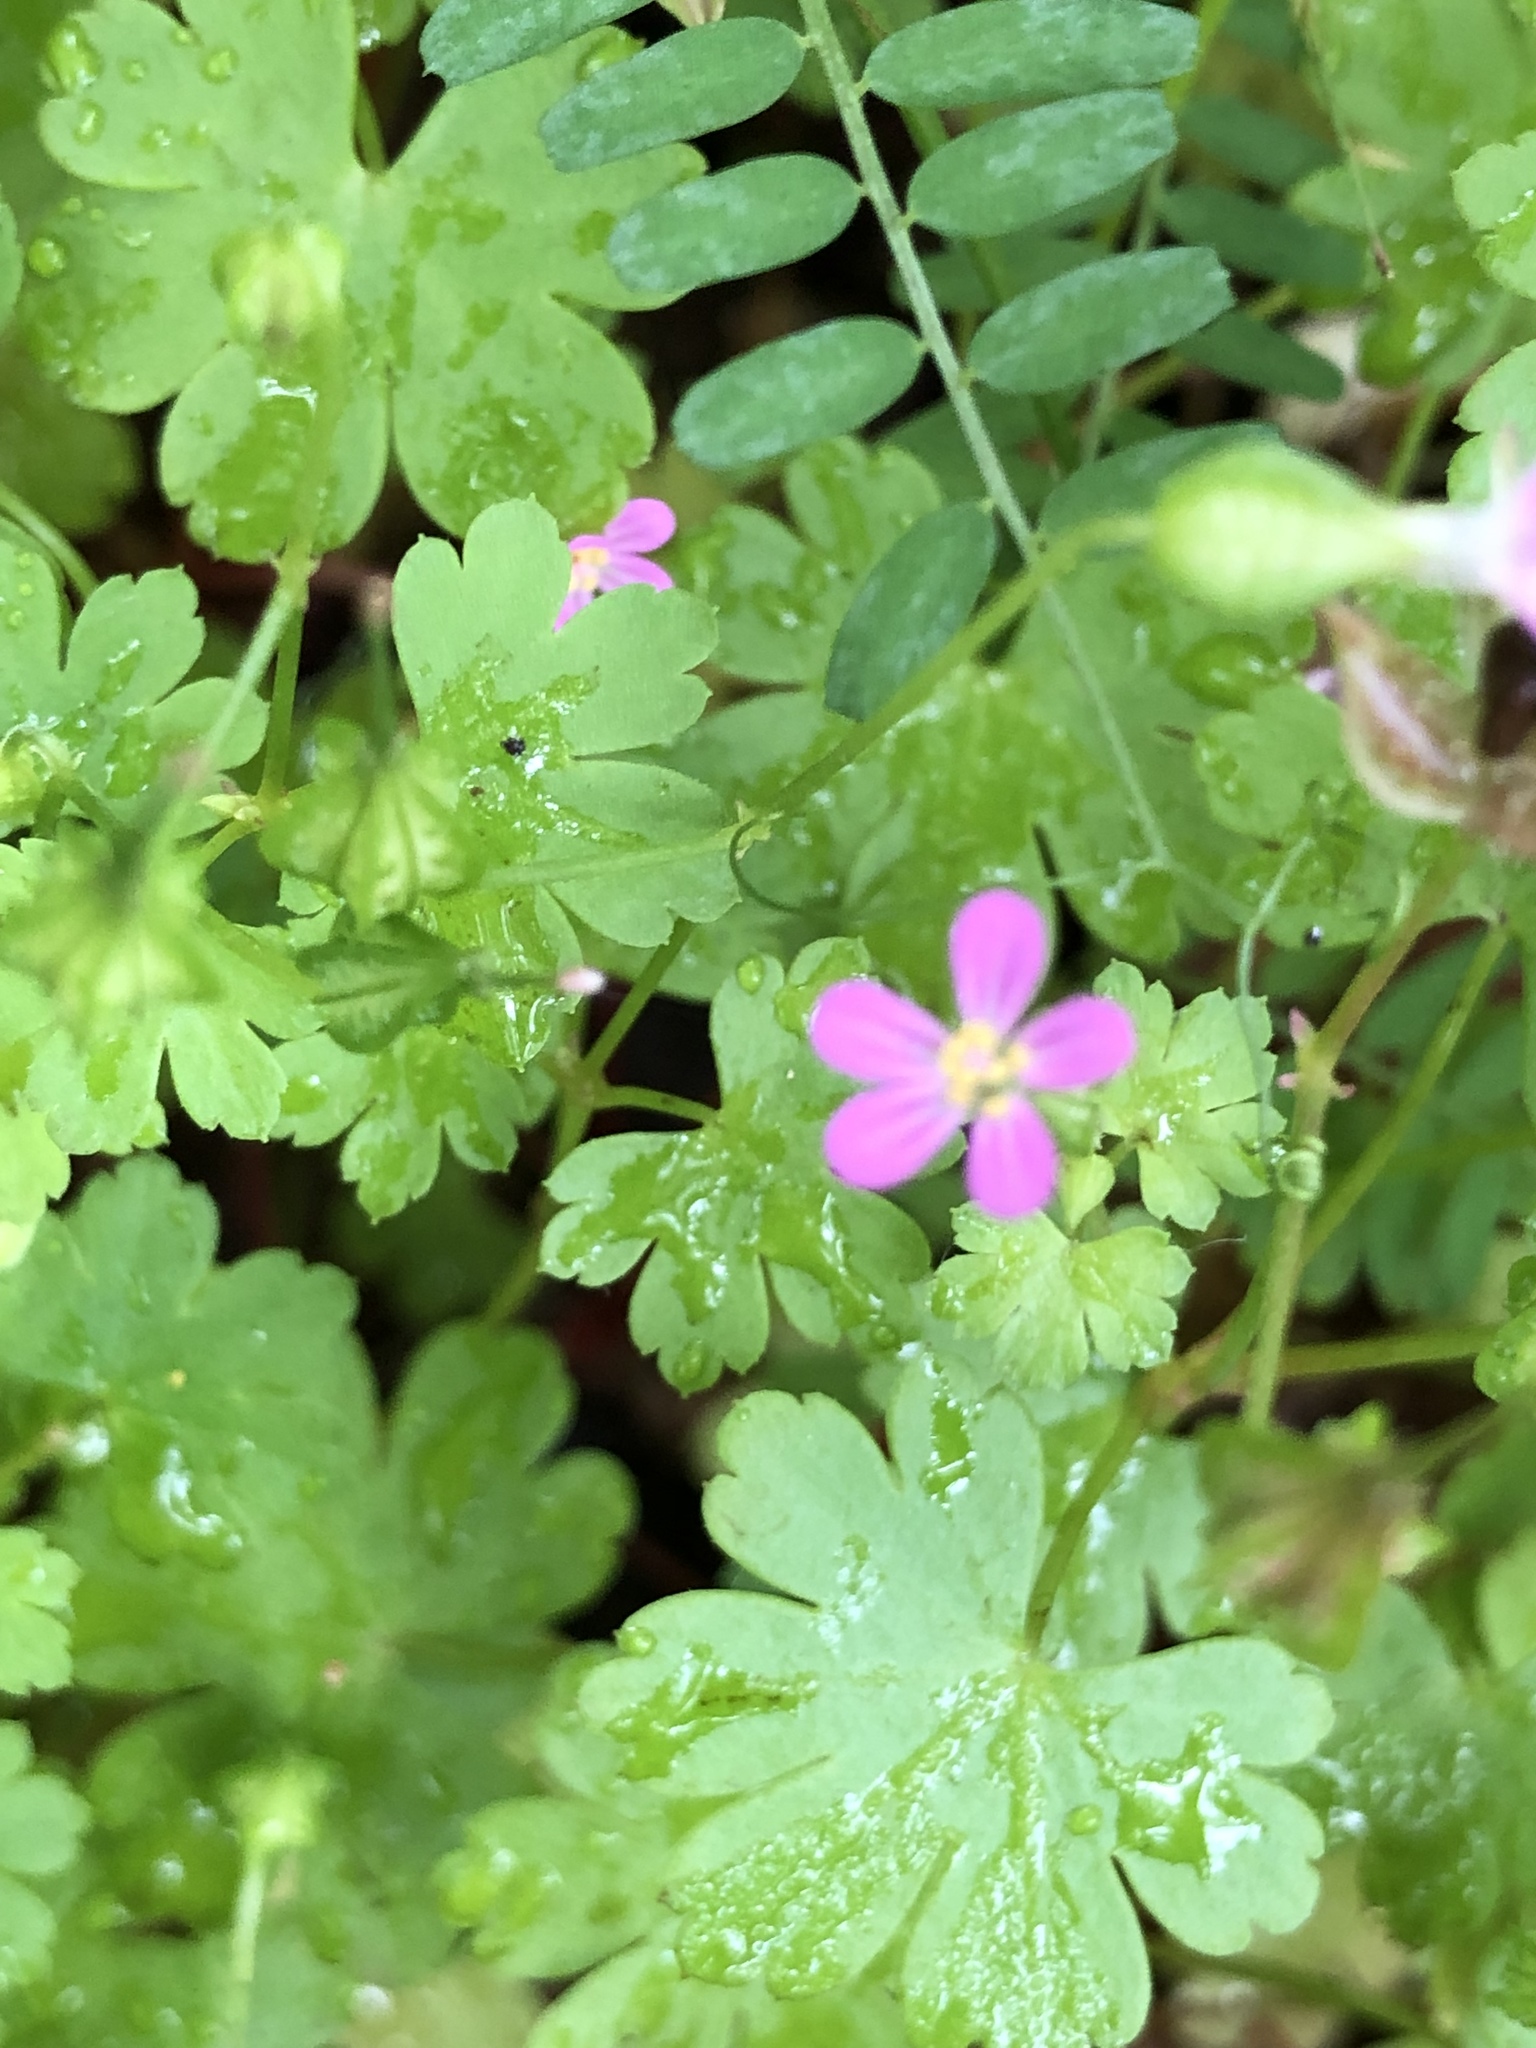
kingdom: Plantae
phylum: Tracheophyta
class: Magnoliopsida
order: Geraniales
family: Geraniaceae
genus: Geranium
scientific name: Geranium lucidum
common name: Shining crane's-bill
